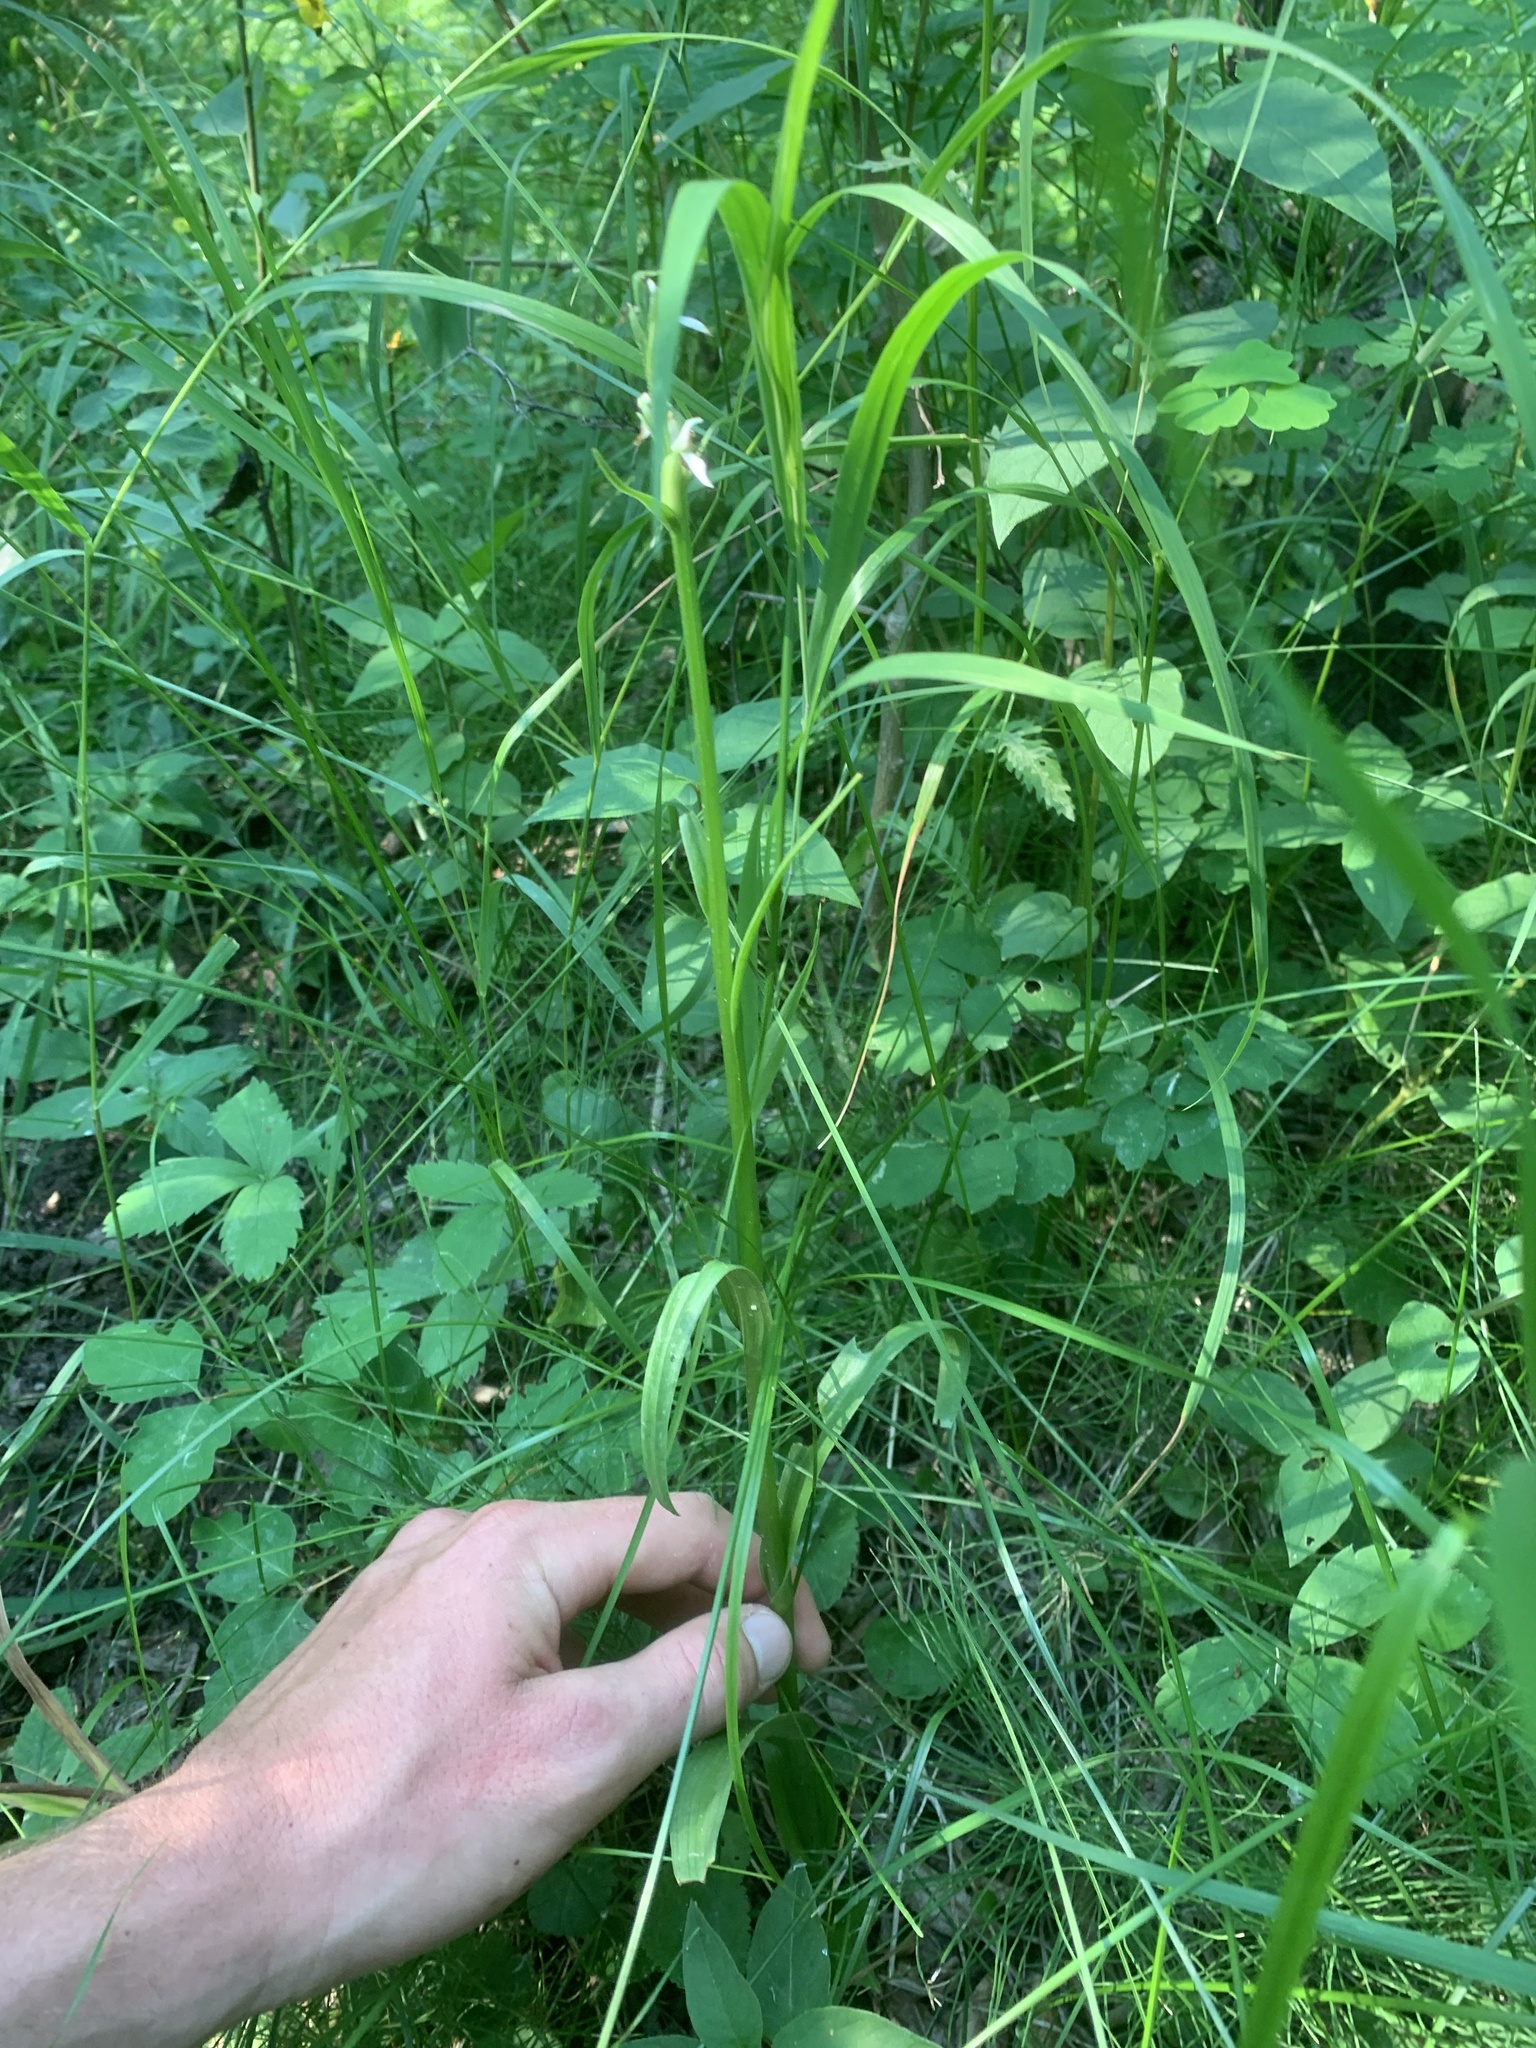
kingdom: Plantae
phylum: Tracheophyta
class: Liliopsida
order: Asparagales
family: Orchidaceae
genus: Platanthera
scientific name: Platanthera dilatata
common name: Bog candles
